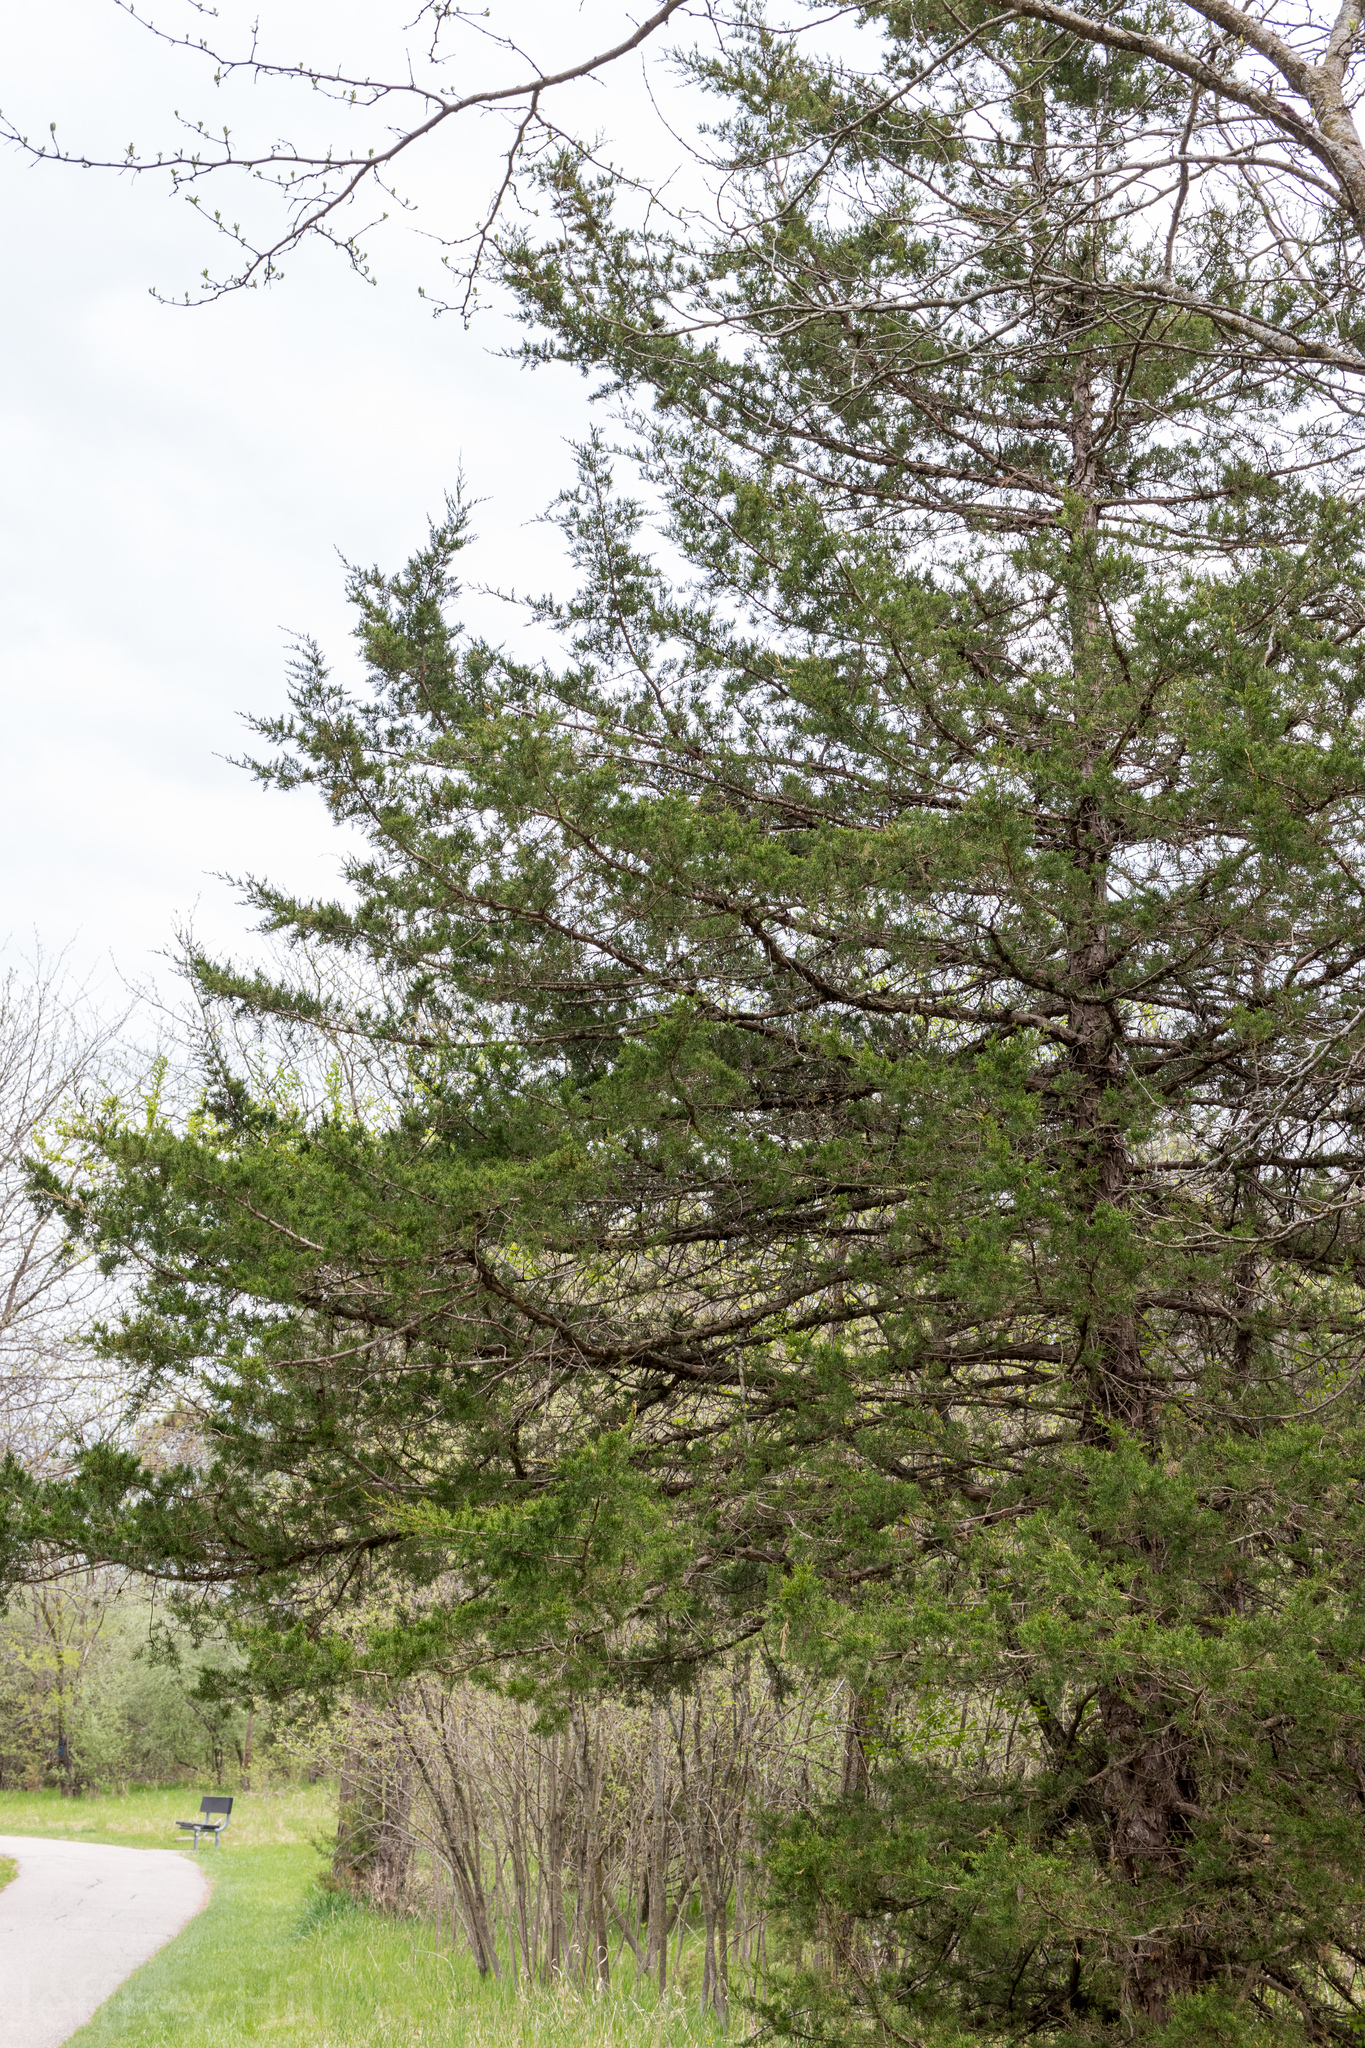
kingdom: Plantae
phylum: Tracheophyta
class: Pinopsida
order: Pinales
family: Cupressaceae
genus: Juniperus
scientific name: Juniperus virginiana
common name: Red juniper
